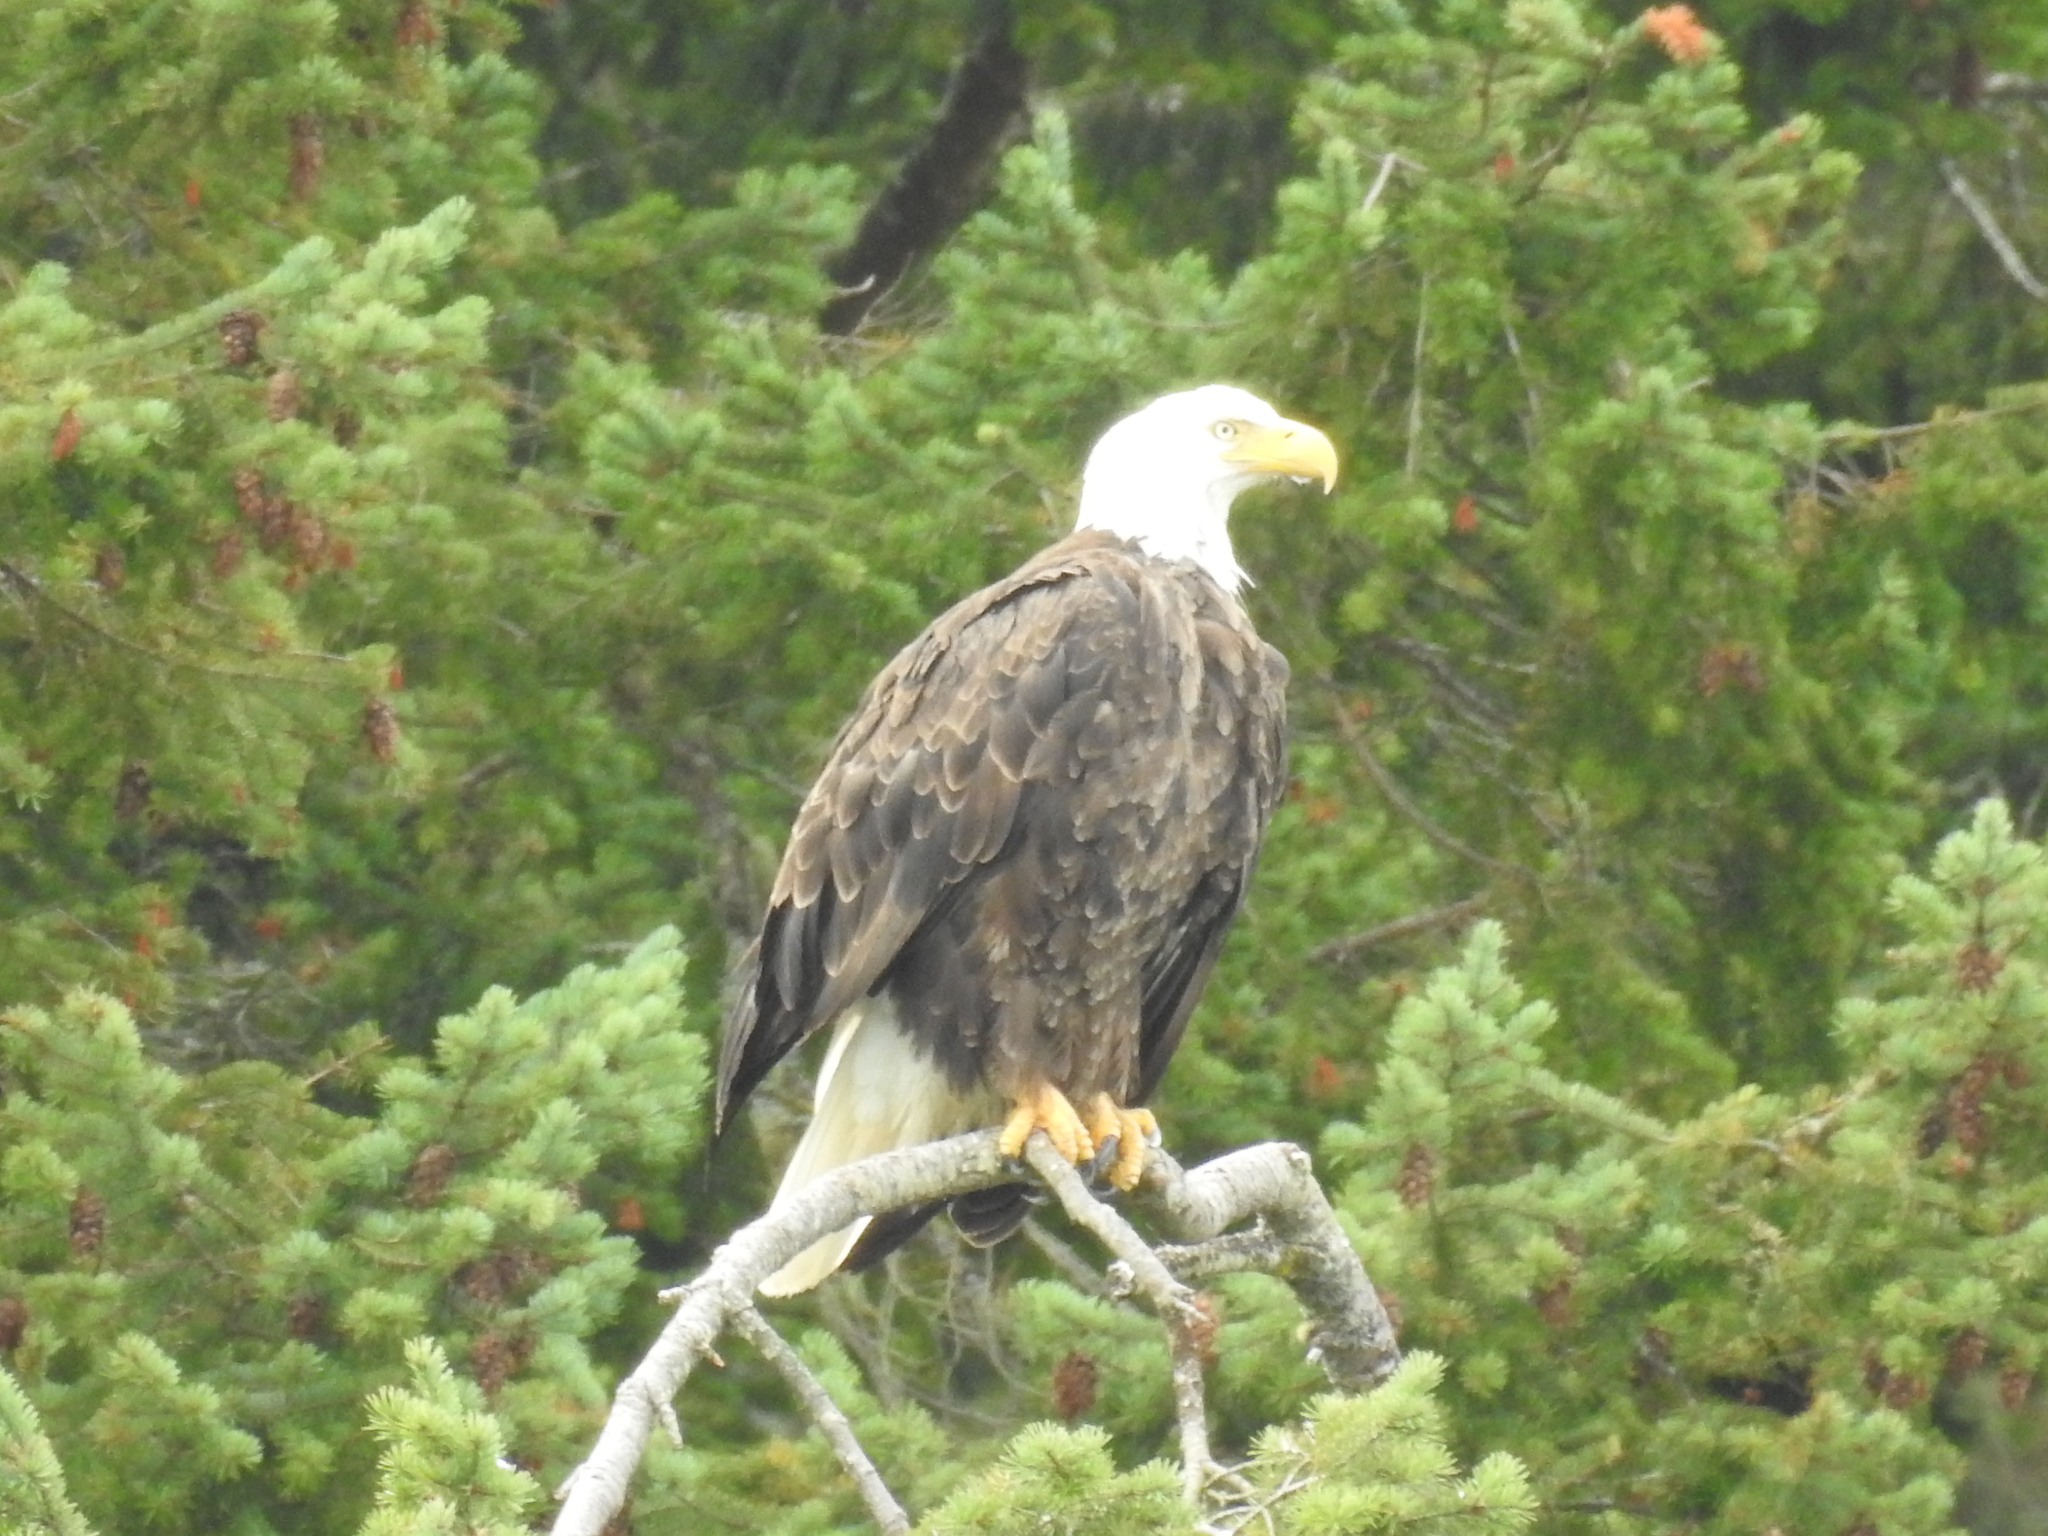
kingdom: Animalia
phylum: Chordata
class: Aves
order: Accipitriformes
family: Accipitridae
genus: Haliaeetus
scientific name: Haliaeetus leucocephalus
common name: Bald eagle
